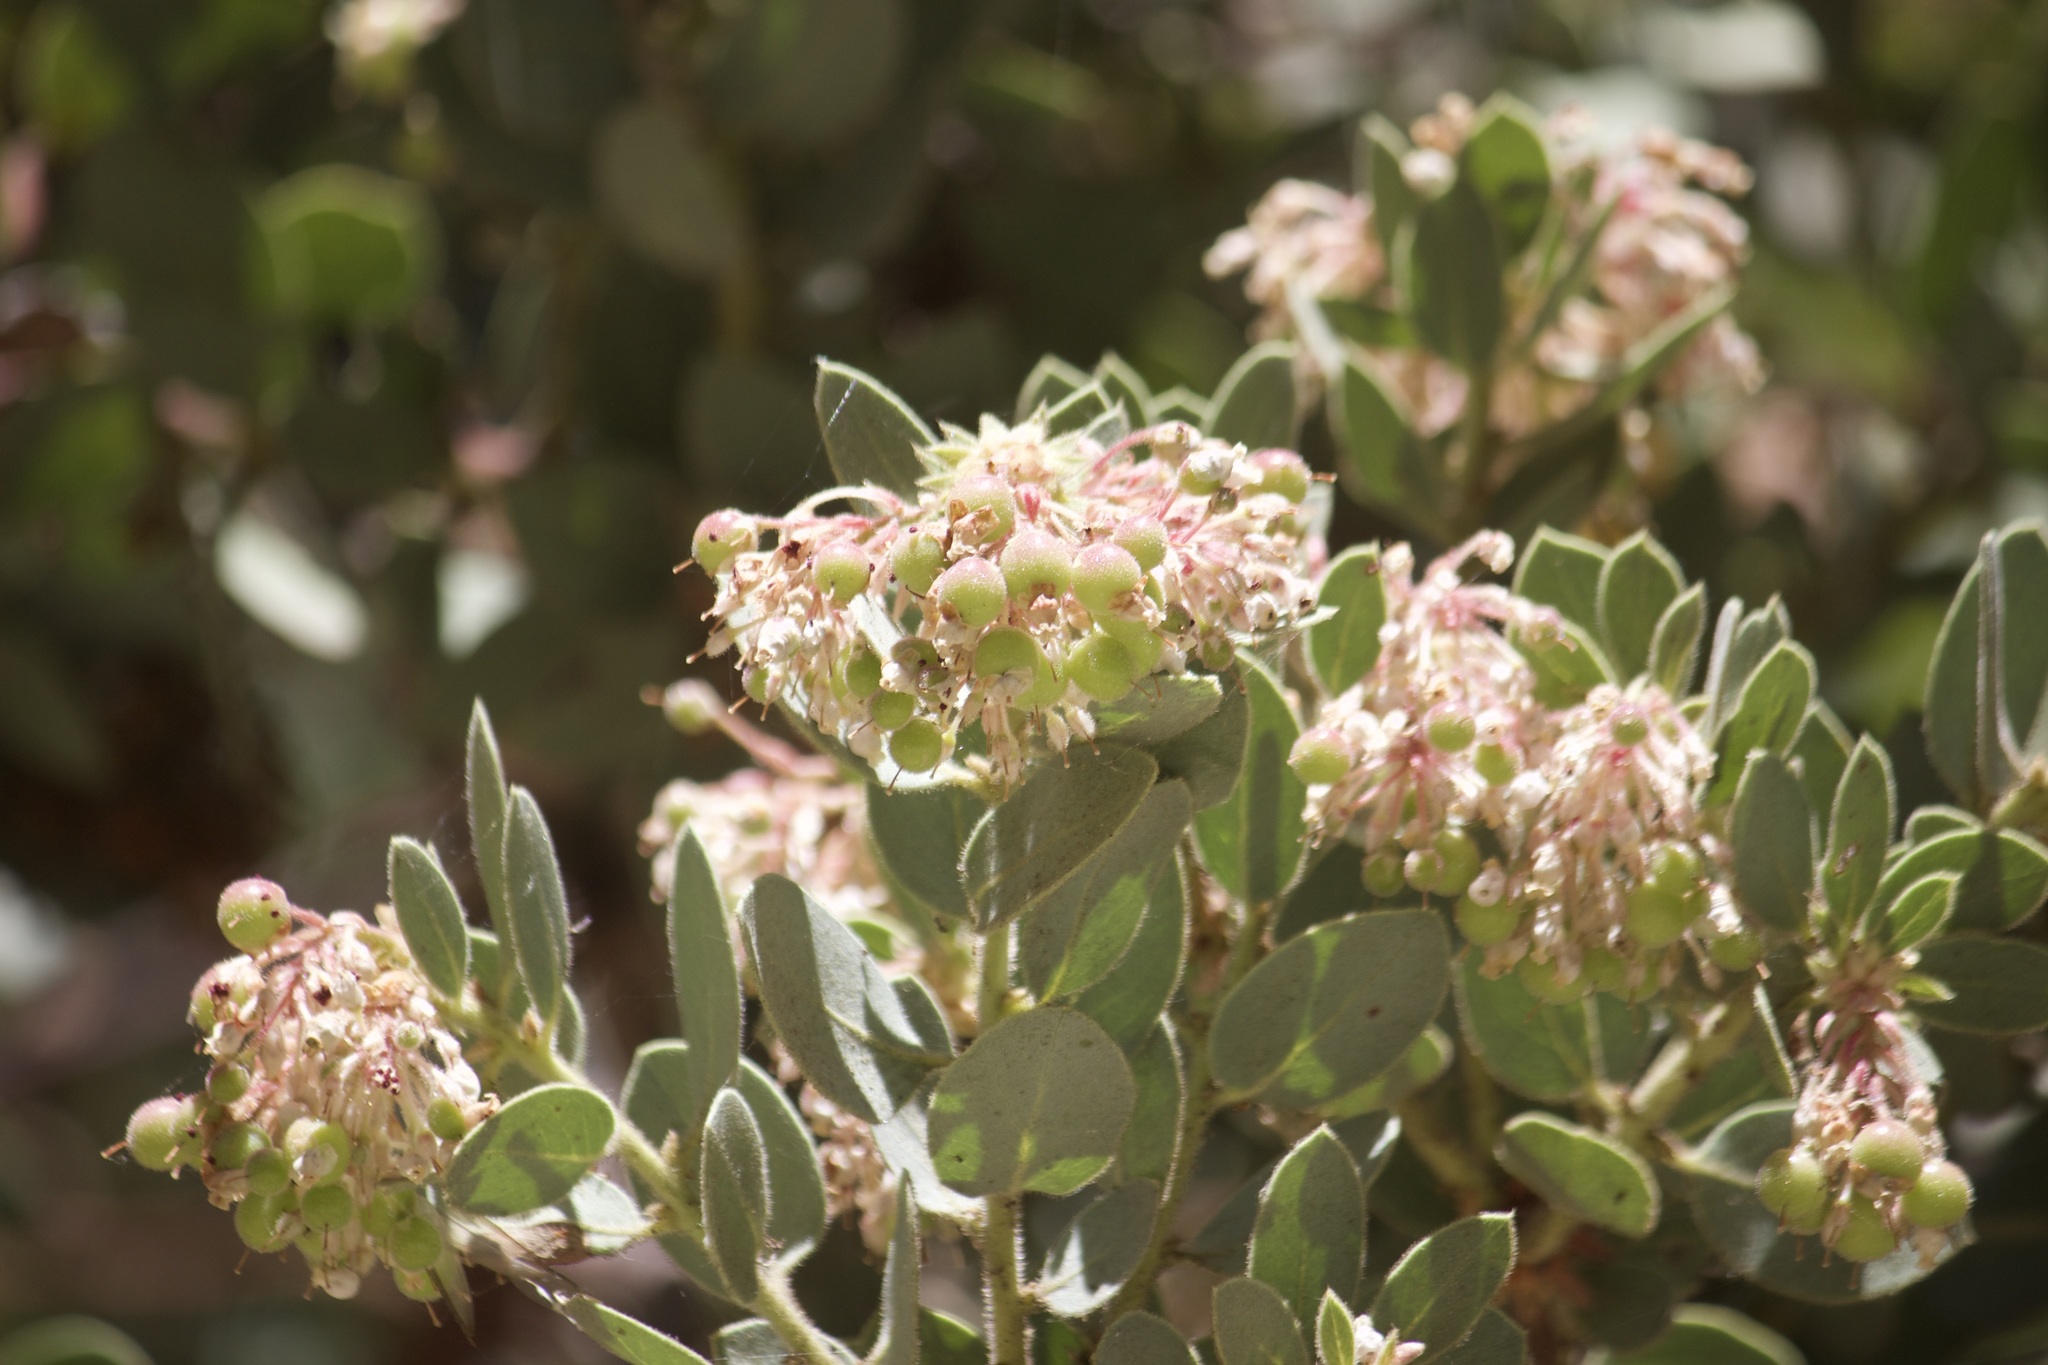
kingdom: Plantae
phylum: Tracheophyta
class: Magnoliopsida
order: Ericales
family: Ericaceae
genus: Arctostaphylos
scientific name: Arctostaphylos pringlei
